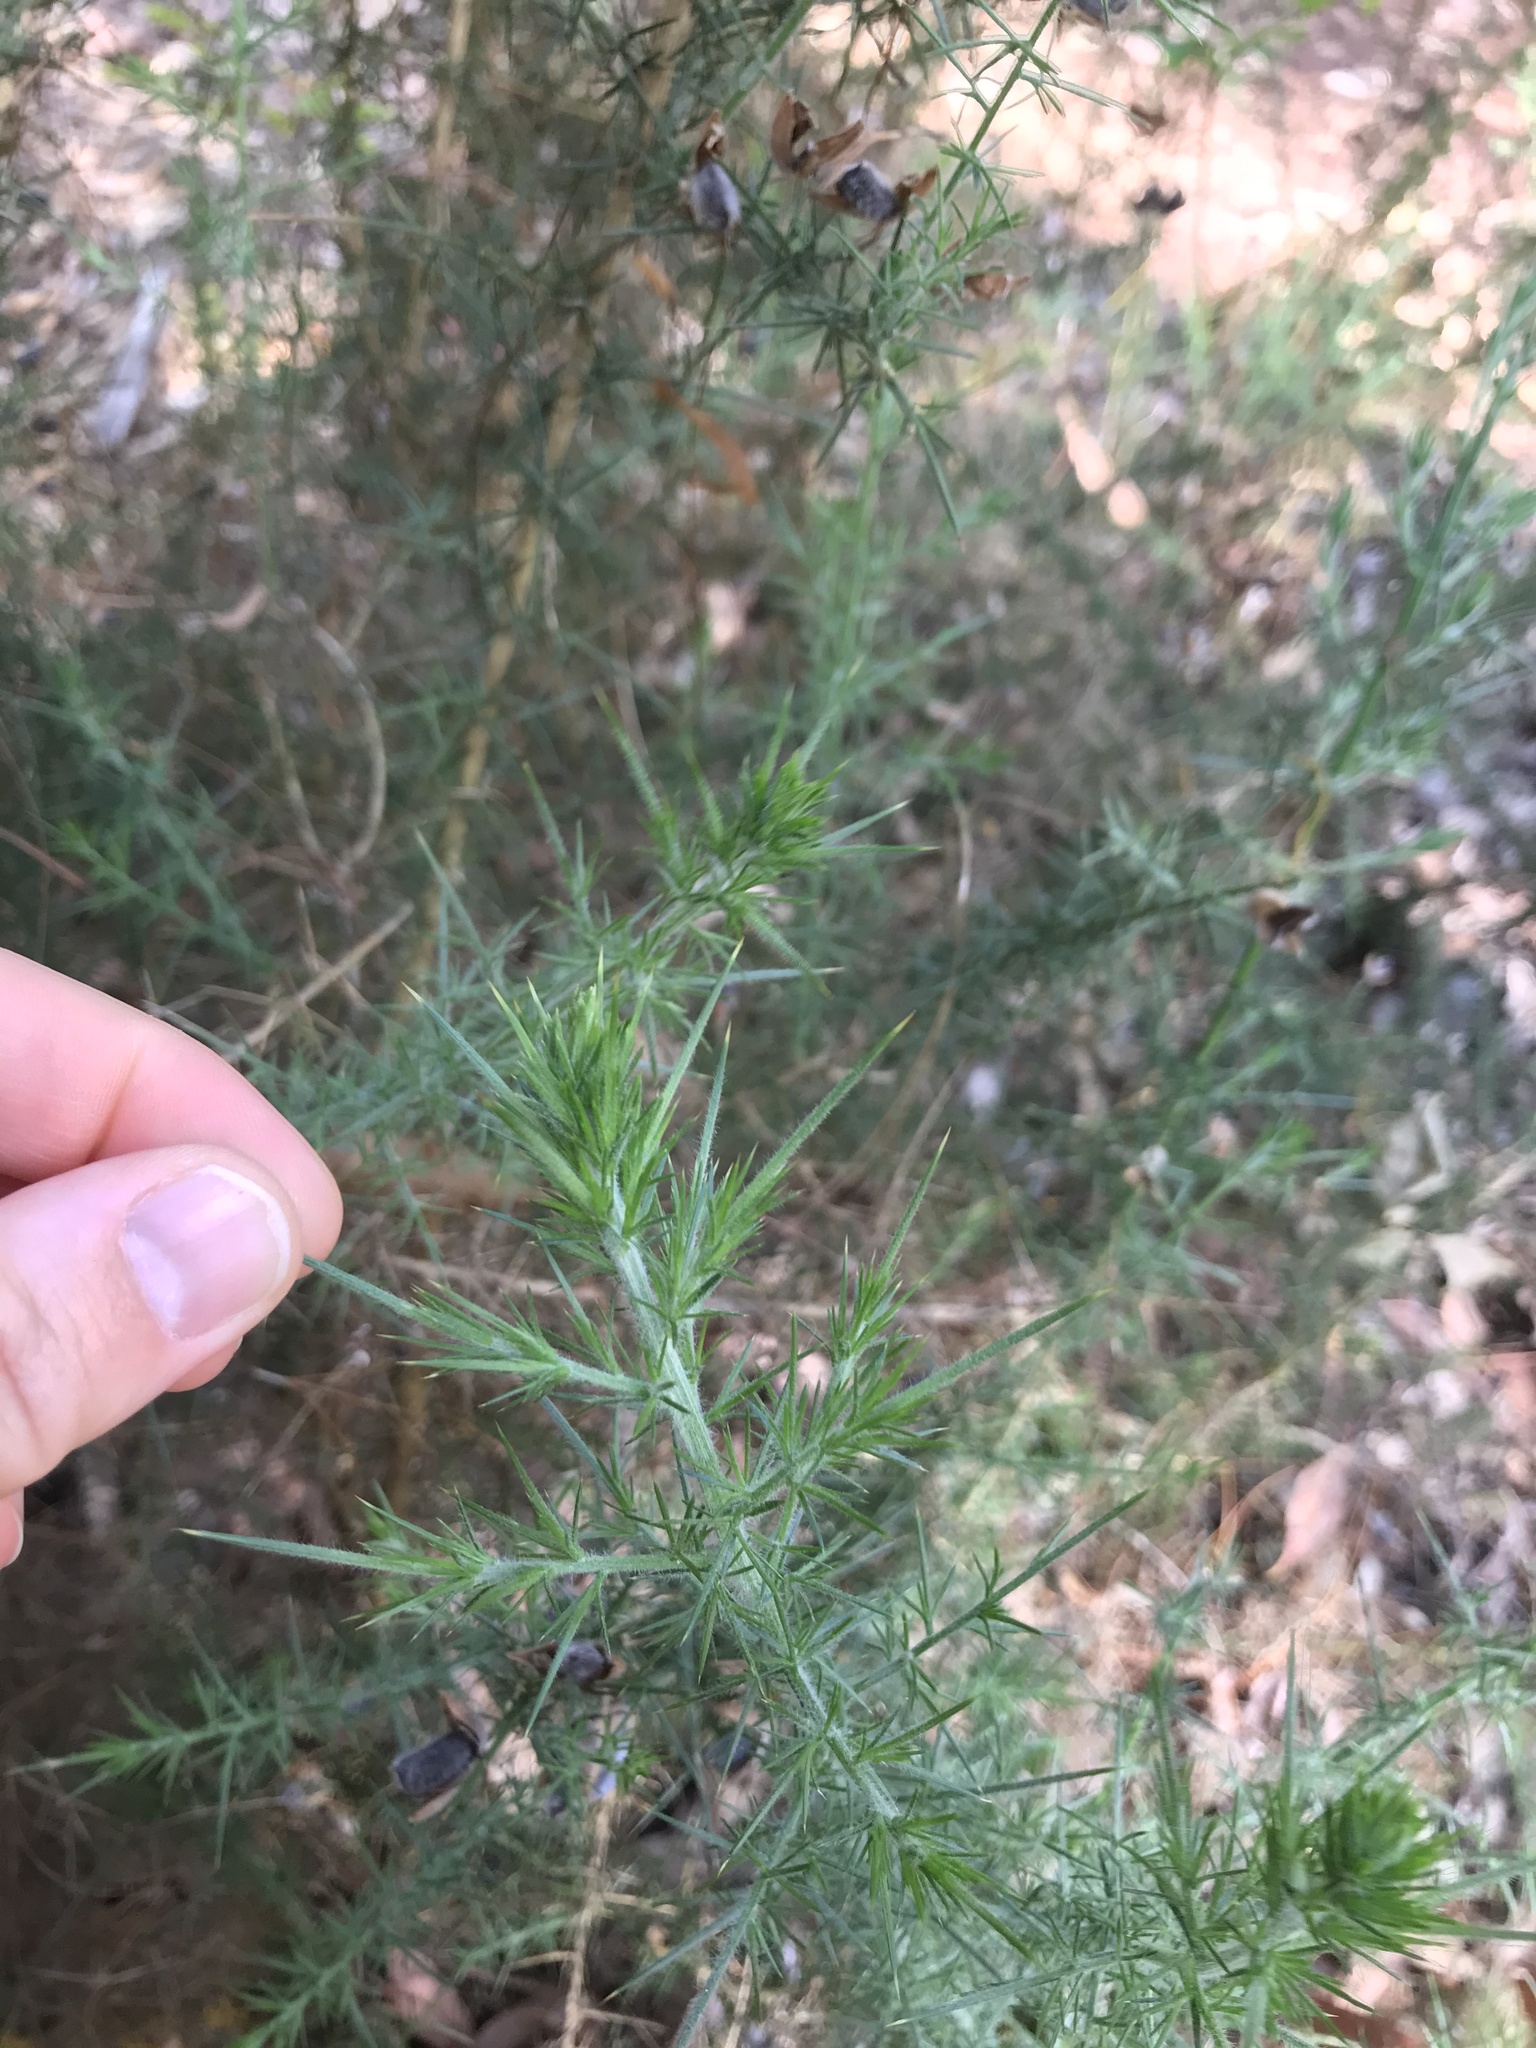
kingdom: Plantae
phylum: Tracheophyta
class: Magnoliopsida
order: Fabales
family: Fabaceae
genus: Ulex
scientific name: Ulex europaeus
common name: Common gorse
